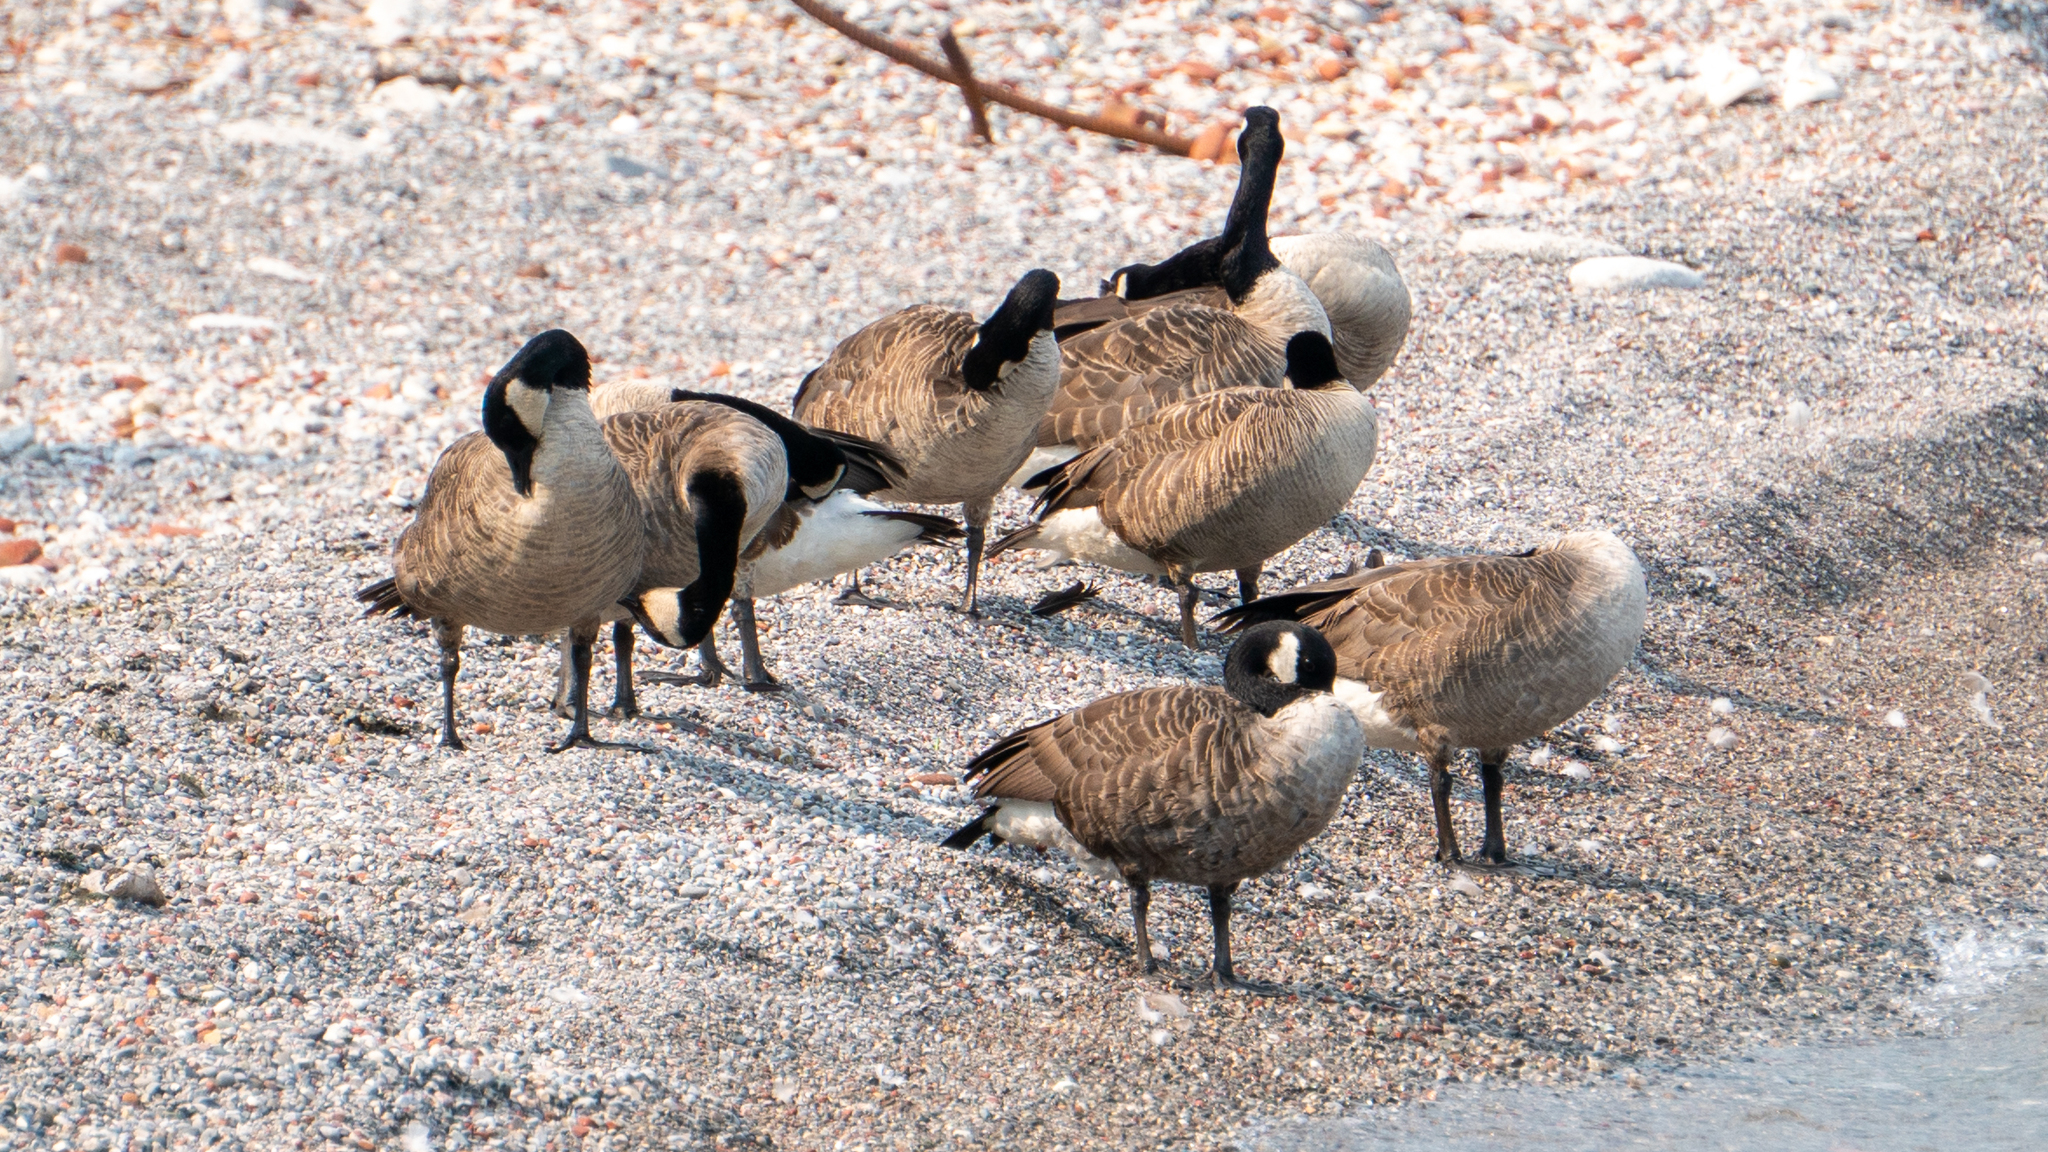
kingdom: Animalia
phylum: Chordata
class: Aves
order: Anseriformes
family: Anatidae
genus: Branta
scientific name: Branta canadensis
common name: Canada goose
